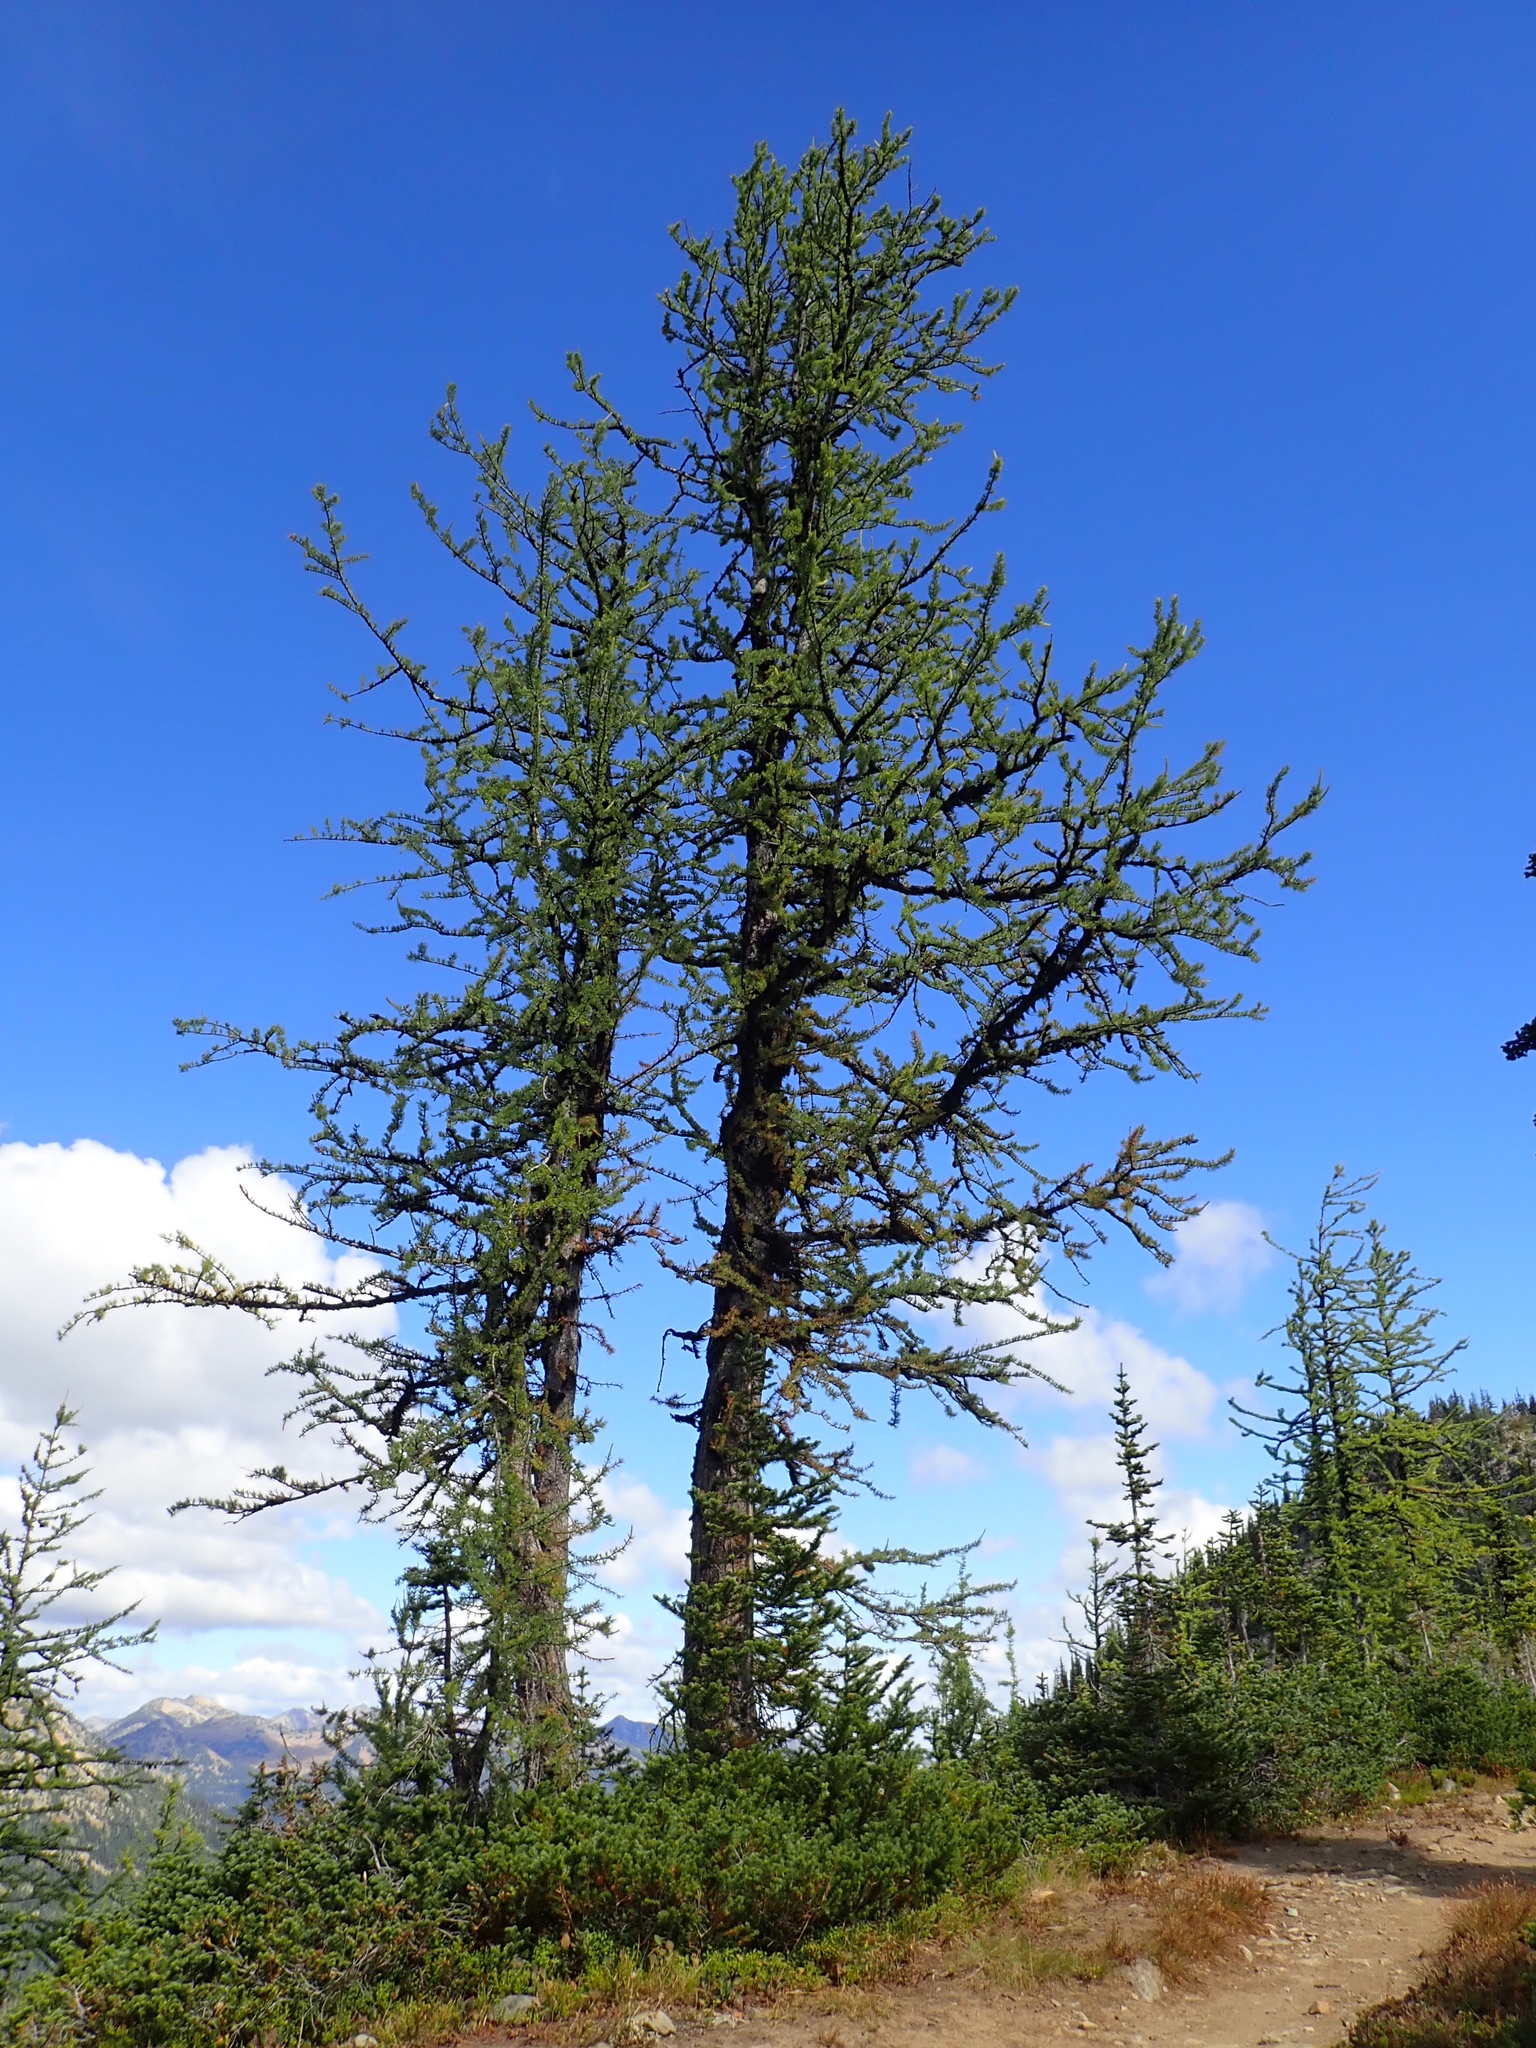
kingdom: Plantae
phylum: Tracheophyta
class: Pinopsida
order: Pinales
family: Pinaceae
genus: Larix
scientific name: Larix lyallii
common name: Alpine larch
